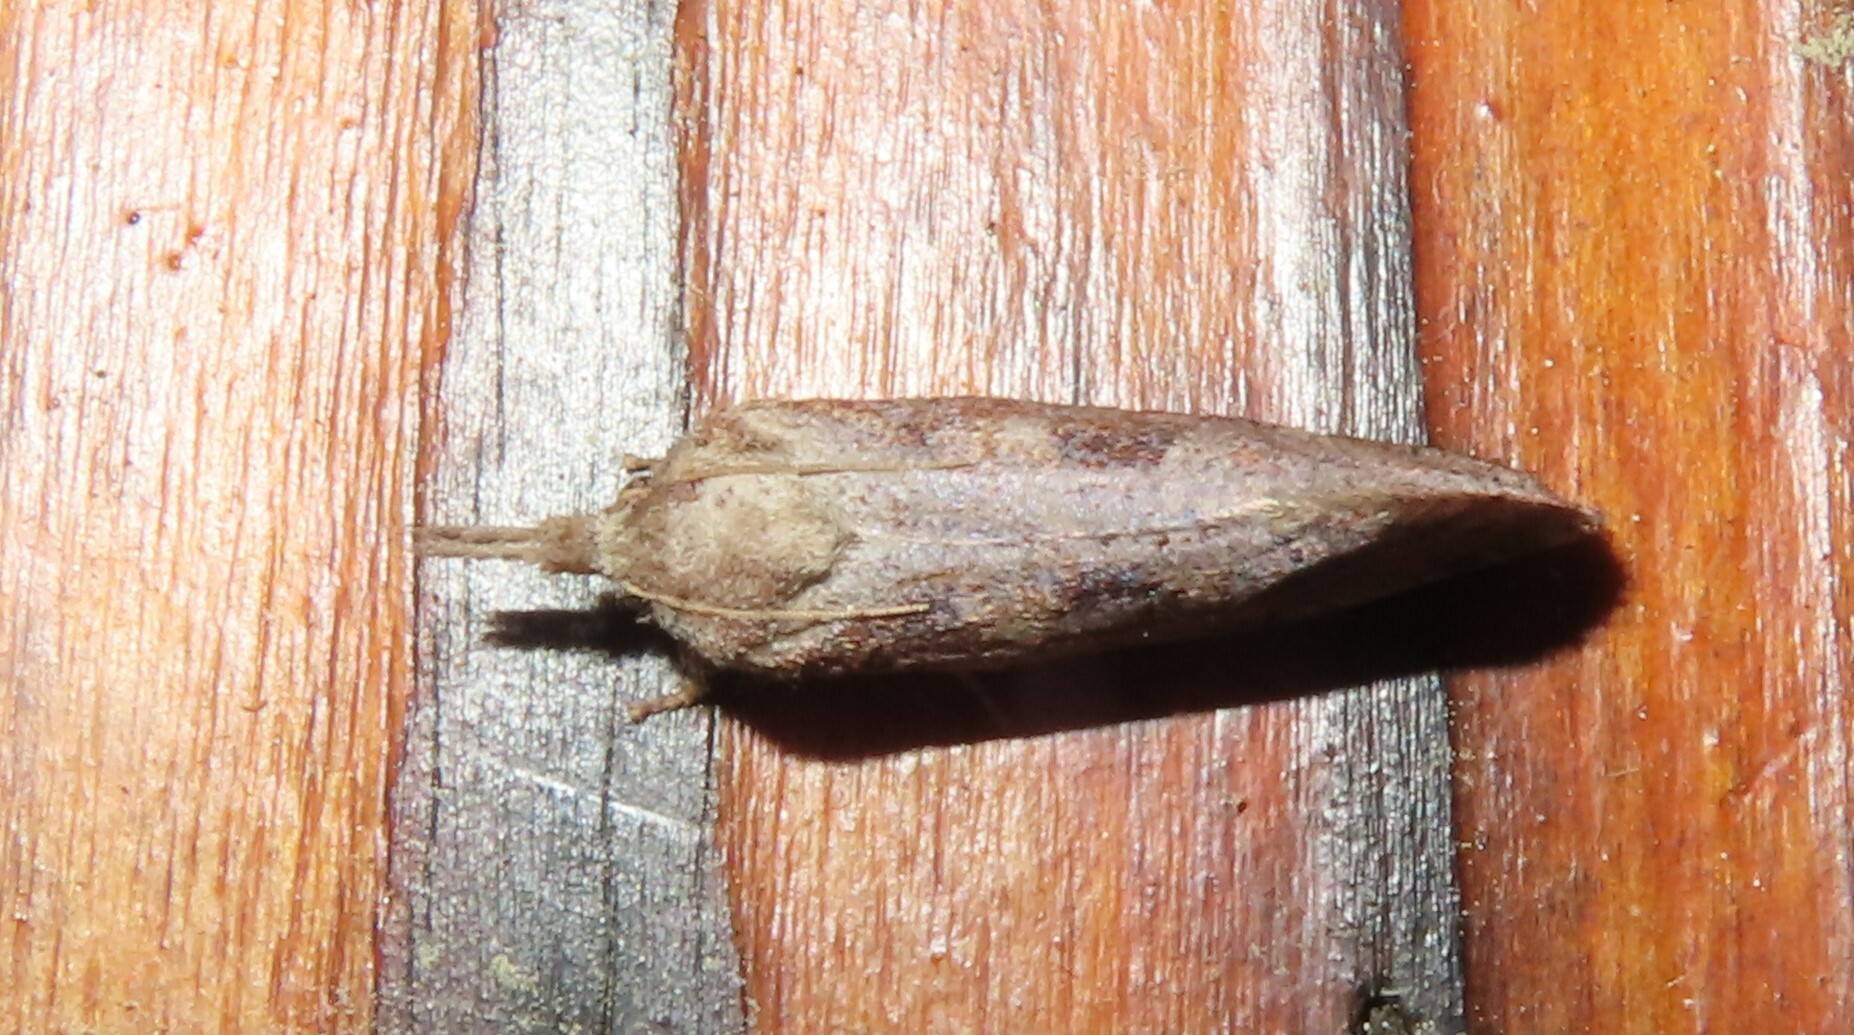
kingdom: Animalia
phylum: Arthropoda
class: Insecta
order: Lepidoptera
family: Tineidae
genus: Acrolophus
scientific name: Acrolophus plumifrontella
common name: Eastern grass tubeworm moth
